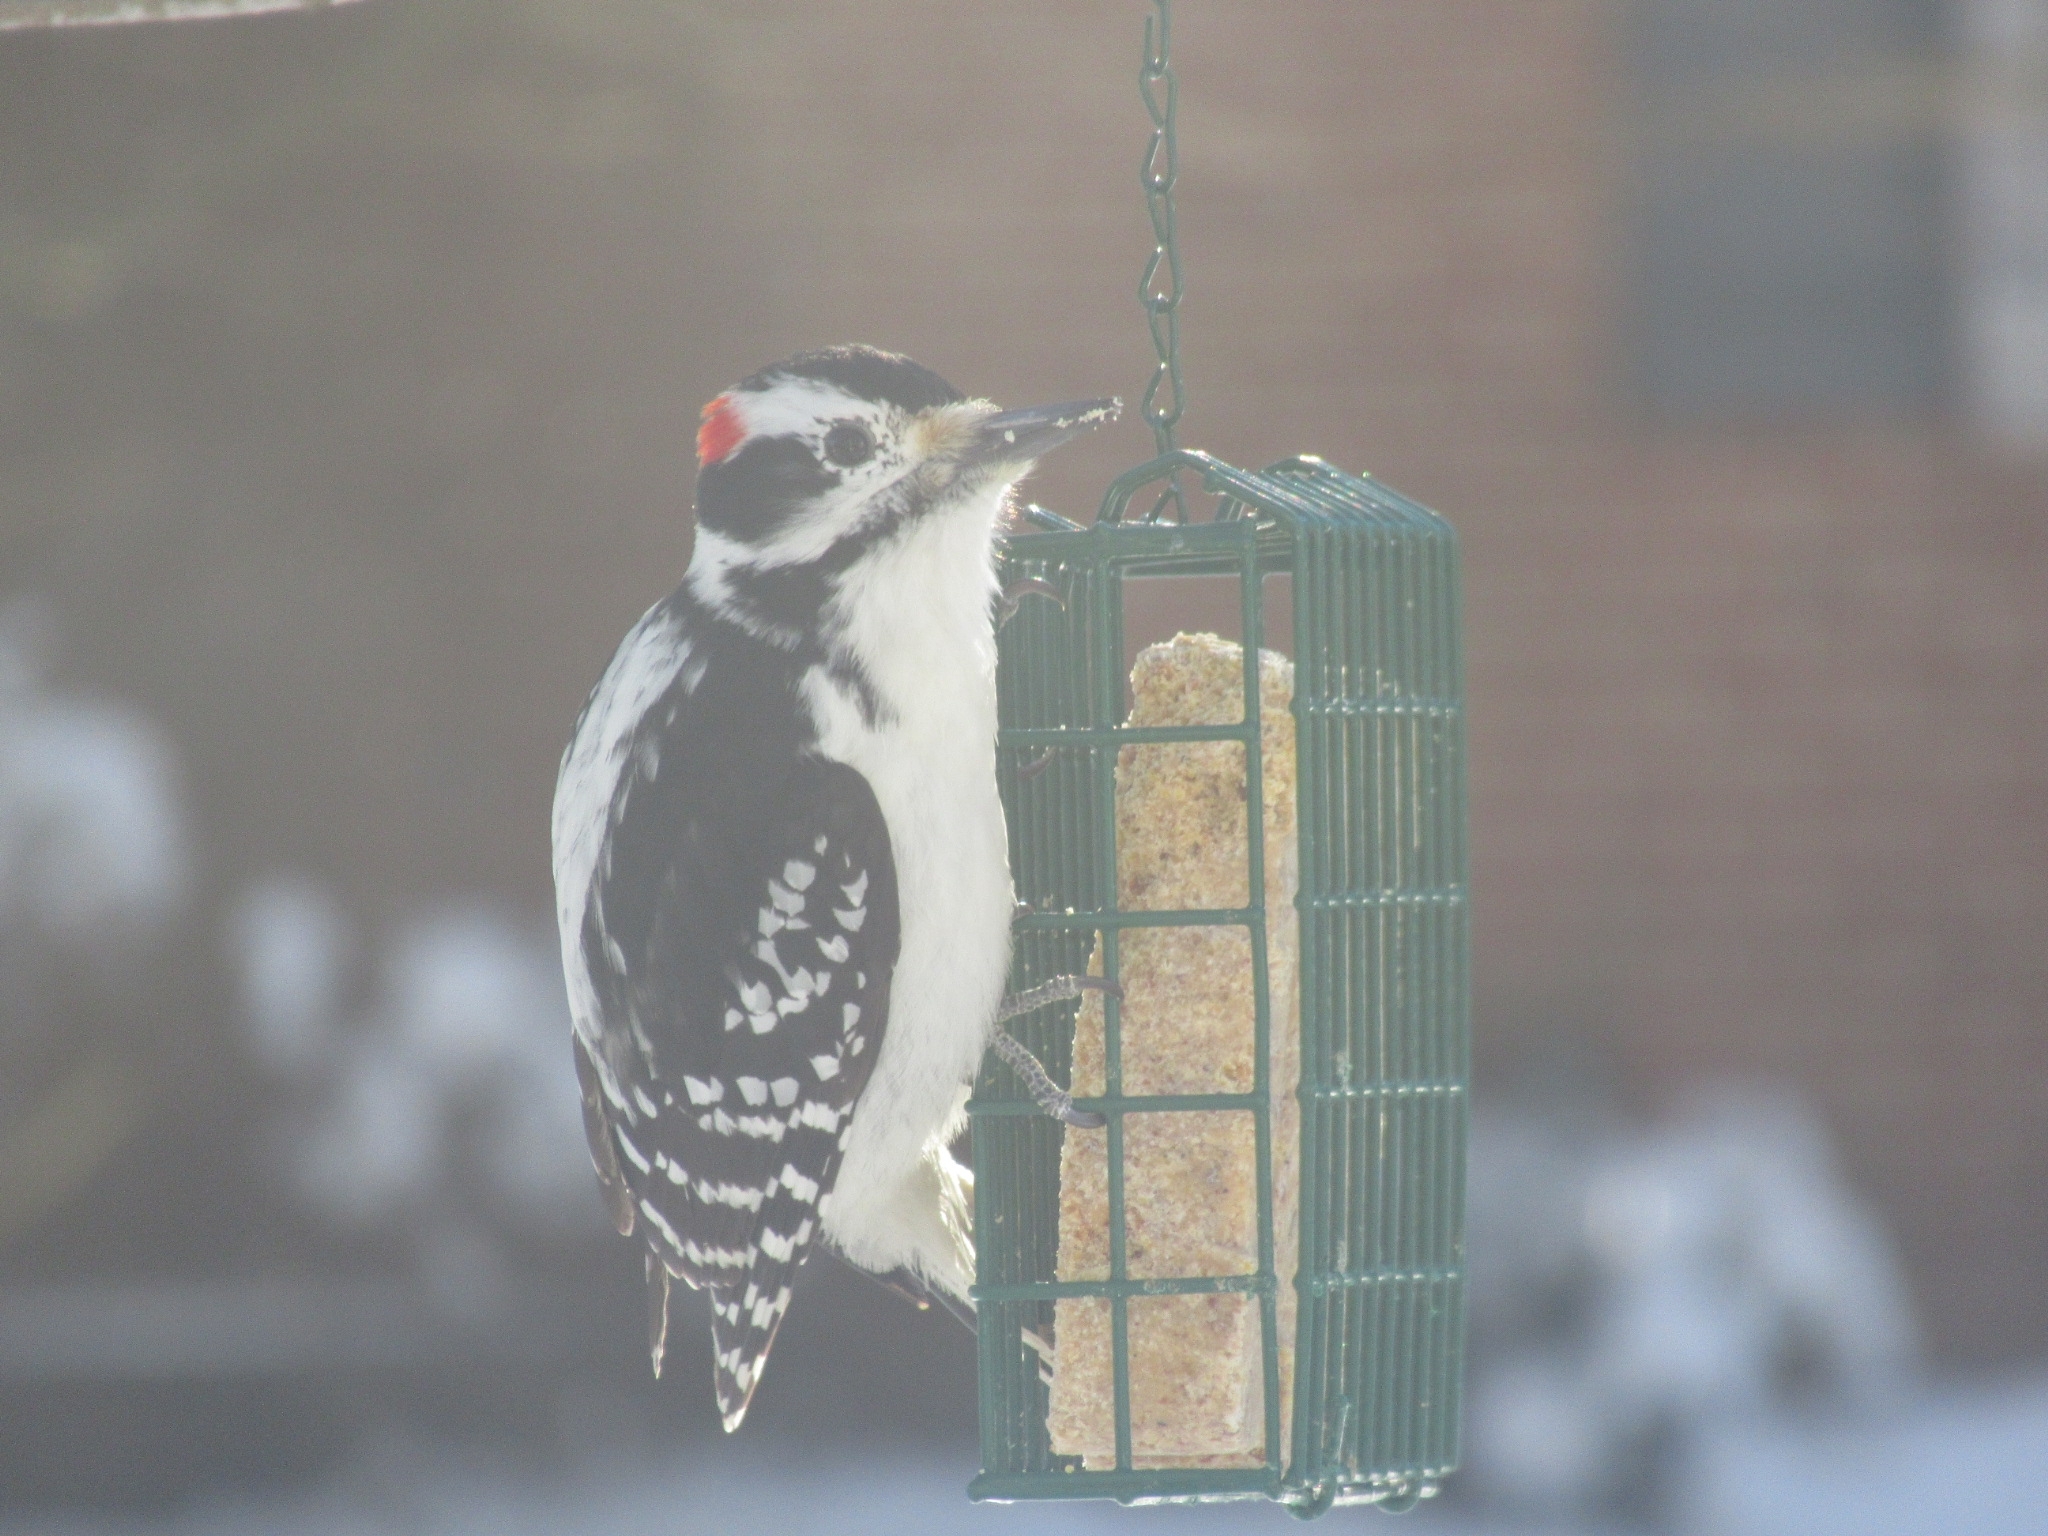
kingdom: Animalia
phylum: Chordata
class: Aves
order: Piciformes
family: Picidae
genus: Leuconotopicus
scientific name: Leuconotopicus villosus
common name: Hairy woodpecker
